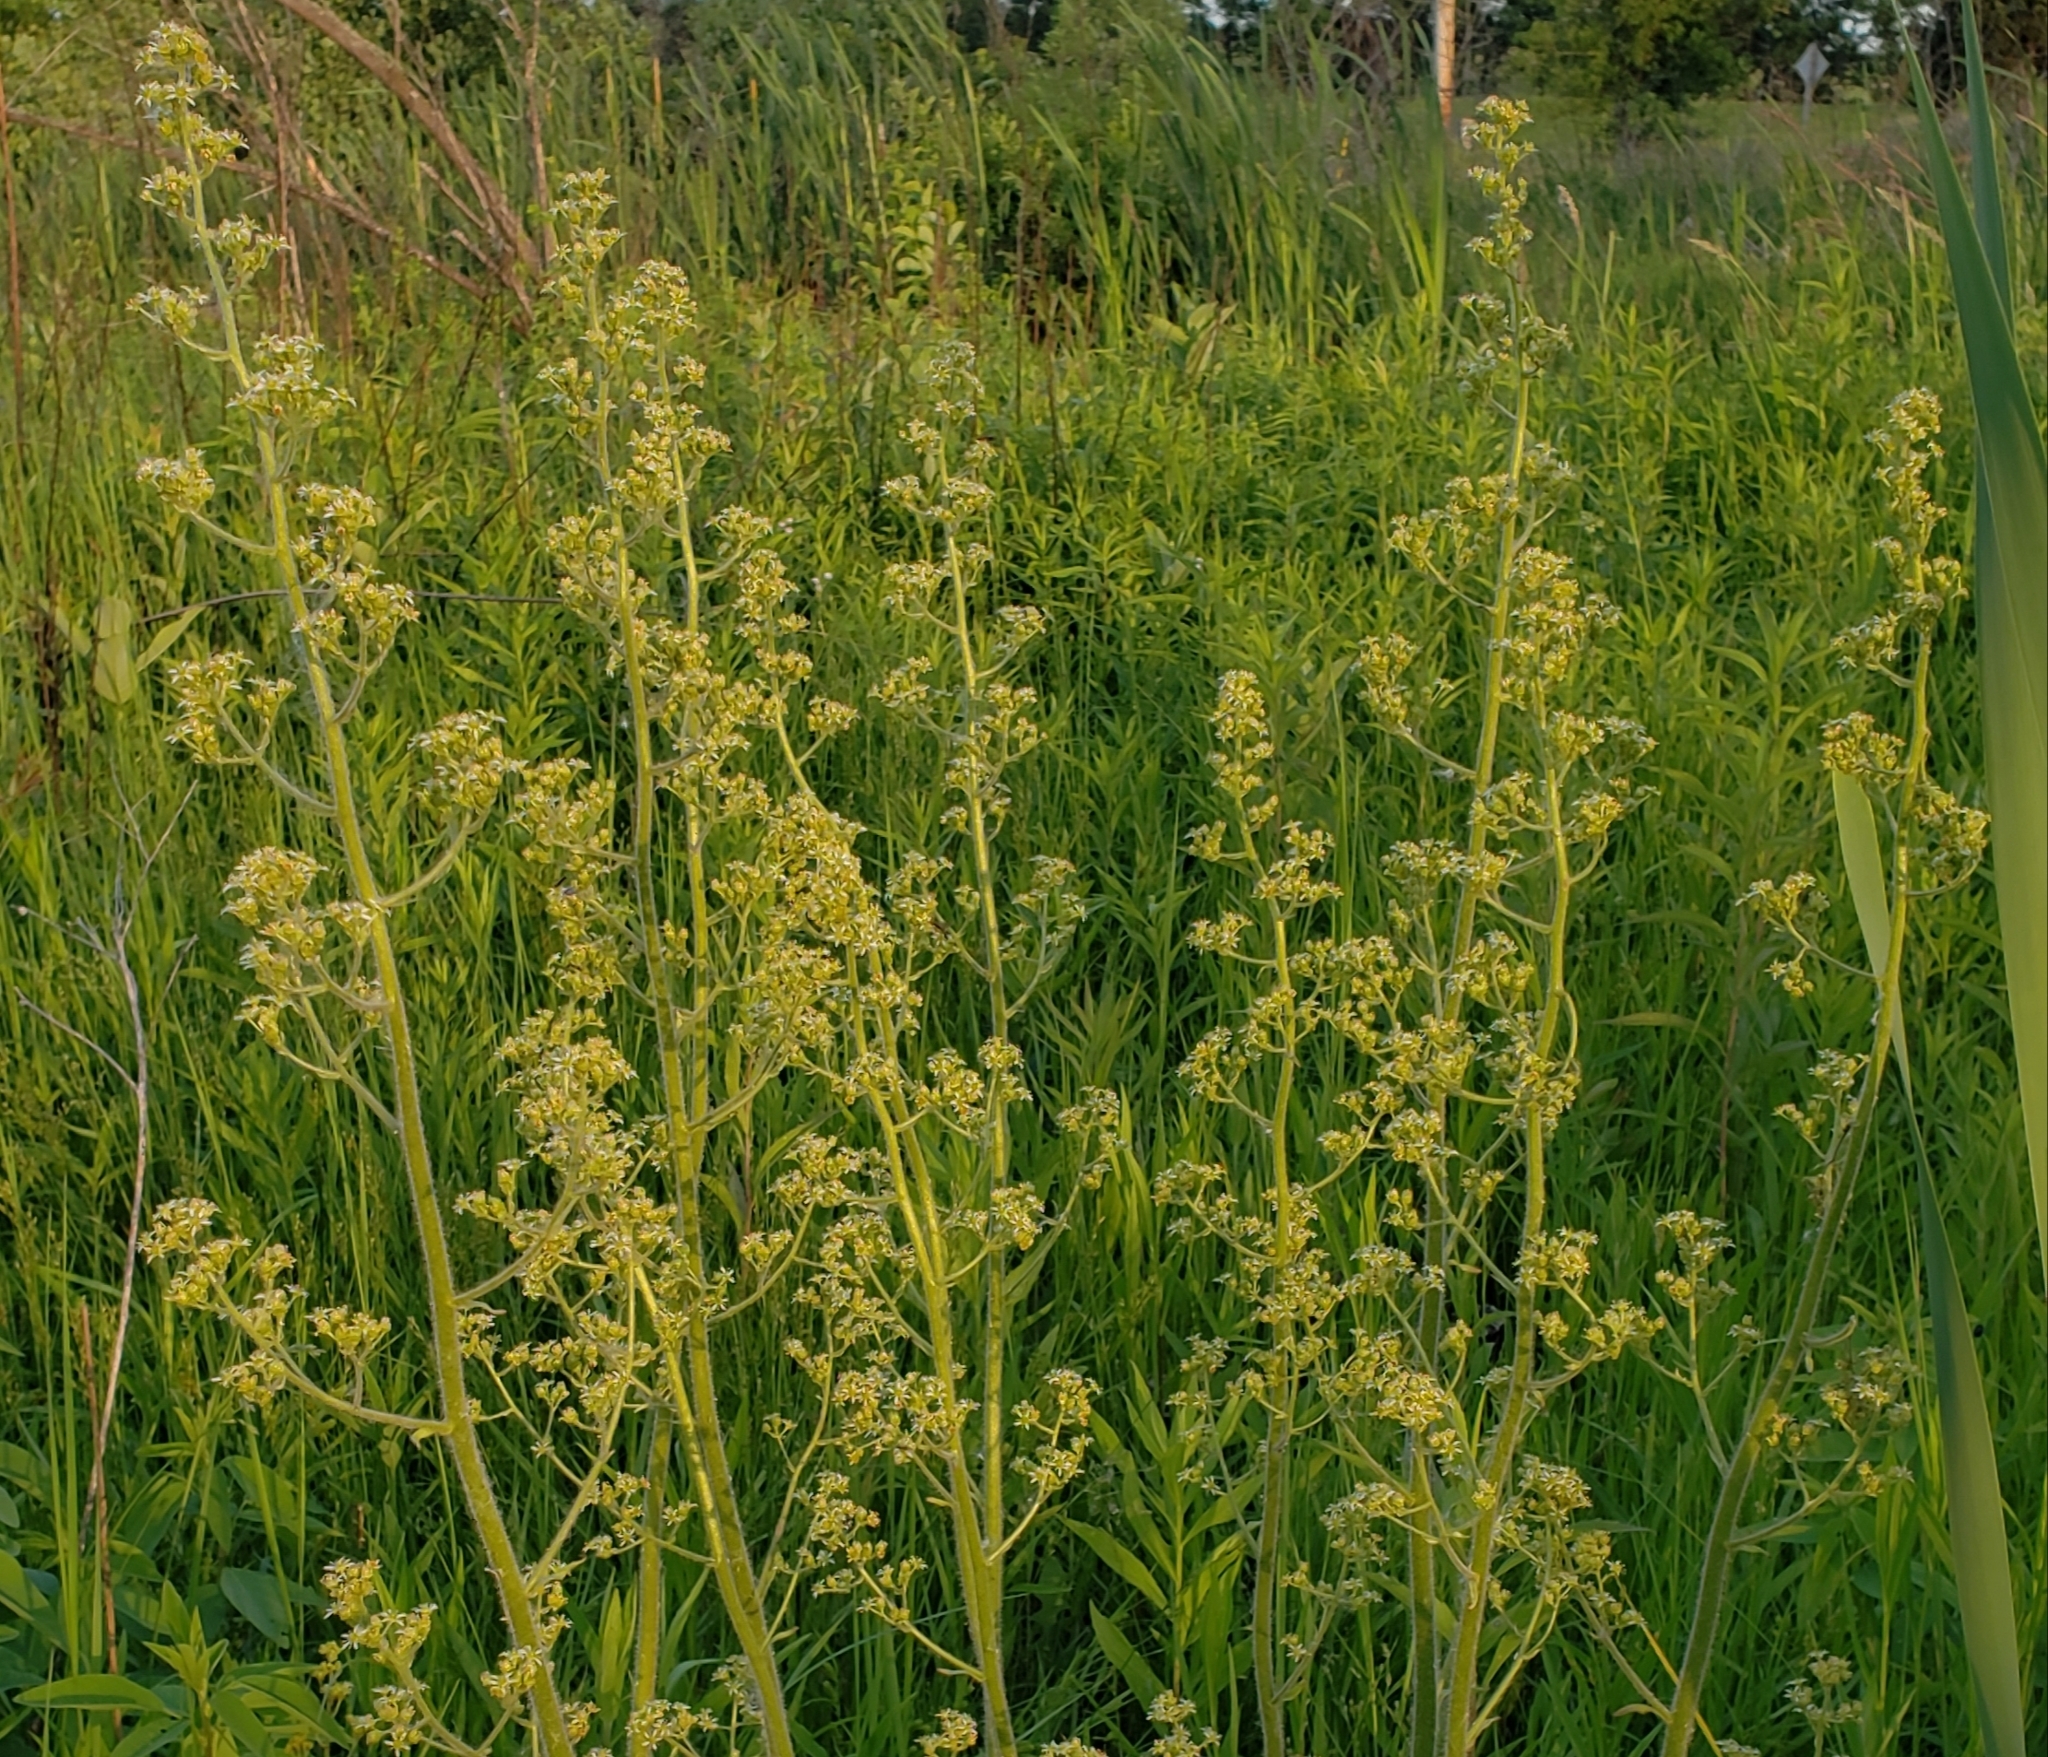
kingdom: Plantae
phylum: Tracheophyta
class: Magnoliopsida
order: Saxifragales
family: Saxifragaceae
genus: Micranthes
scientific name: Micranthes pensylvanica
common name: Marsh saxifrage
